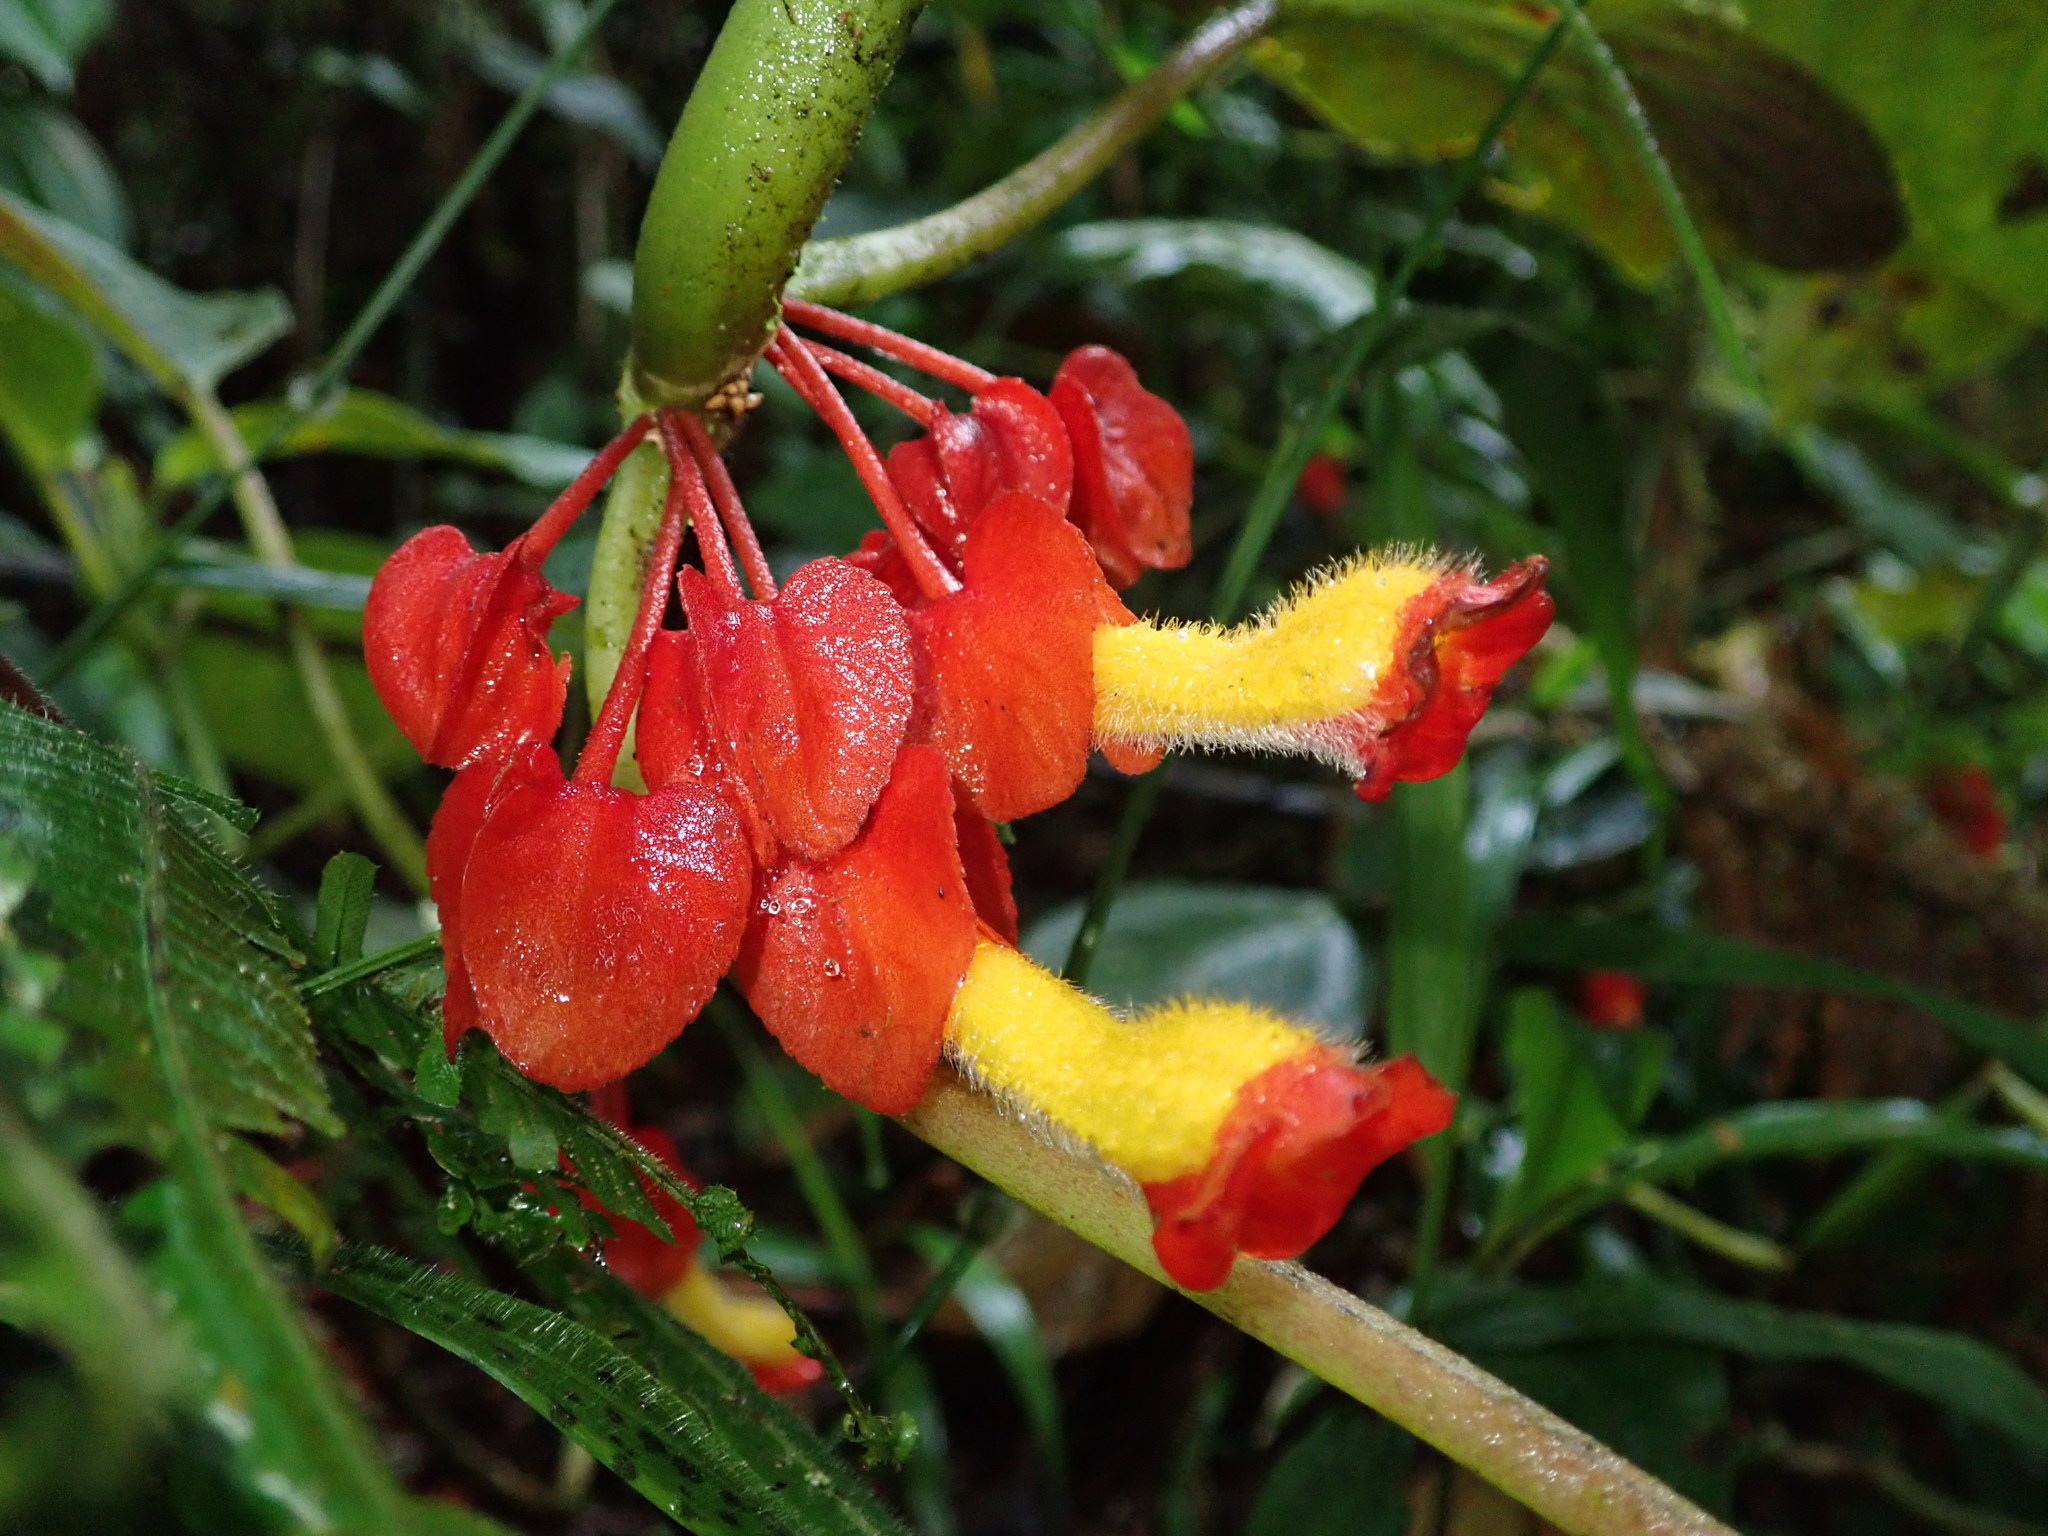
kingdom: Plantae
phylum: Tracheophyta
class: Magnoliopsida
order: Lamiales
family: Gesneriaceae
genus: Glossoloma
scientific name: Glossoloma tetragonoides
